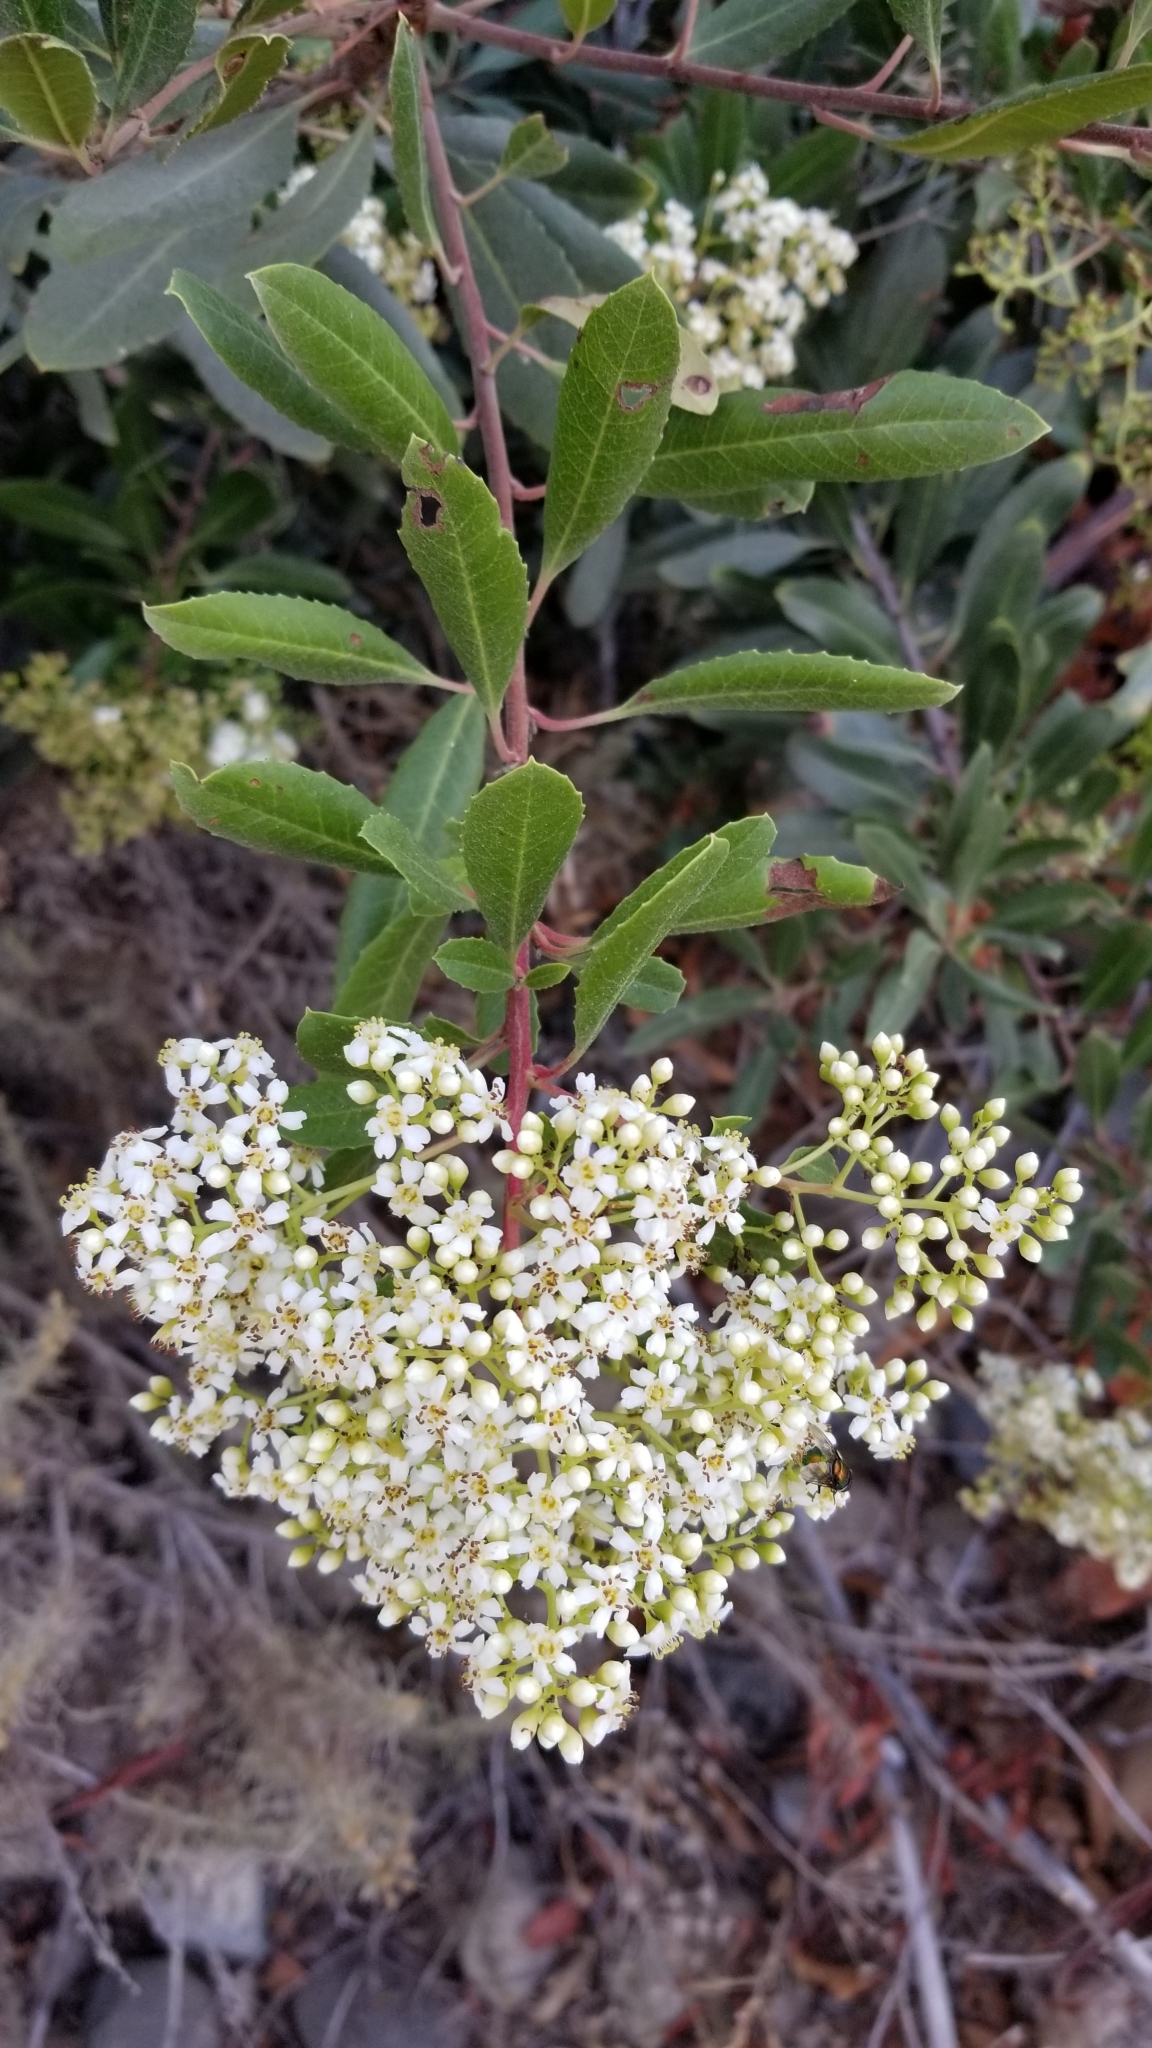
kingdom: Plantae
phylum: Tracheophyta
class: Magnoliopsida
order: Rosales
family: Rosaceae
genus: Heteromeles
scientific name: Heteromeles arbutifolia
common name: California-holly
